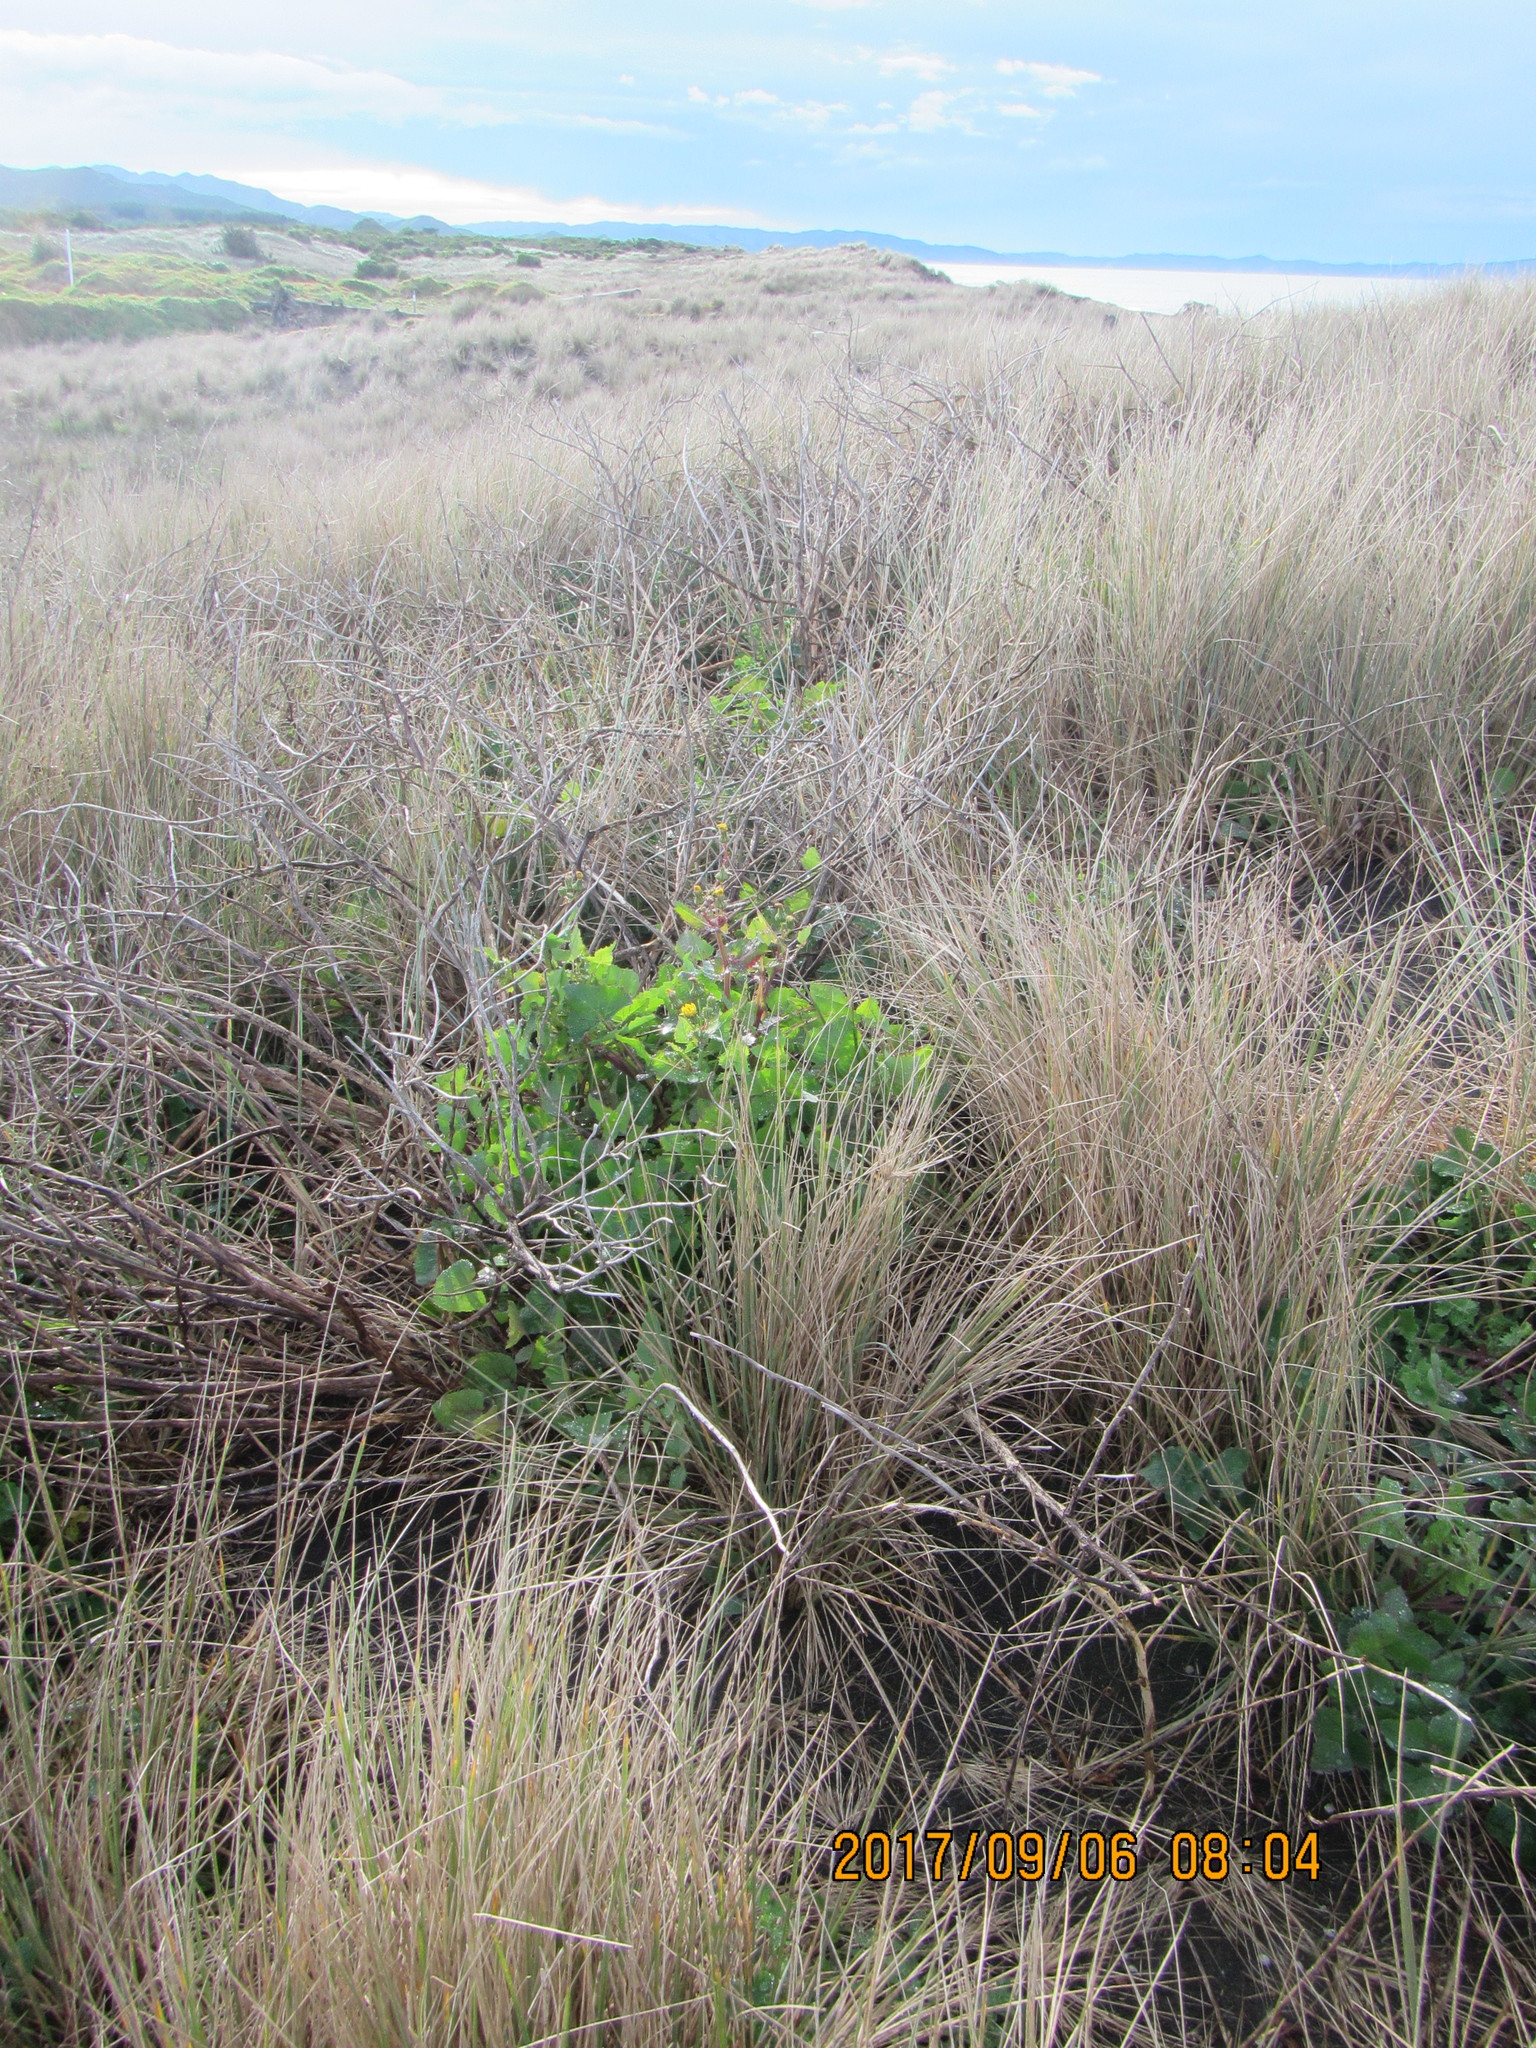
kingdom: Plantae
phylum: Tracheophyta
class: Magnoliopsida
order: Asterales
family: Asteraceae
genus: Sonchus
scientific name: Sonchus oleraceus
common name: Common sowthistle
